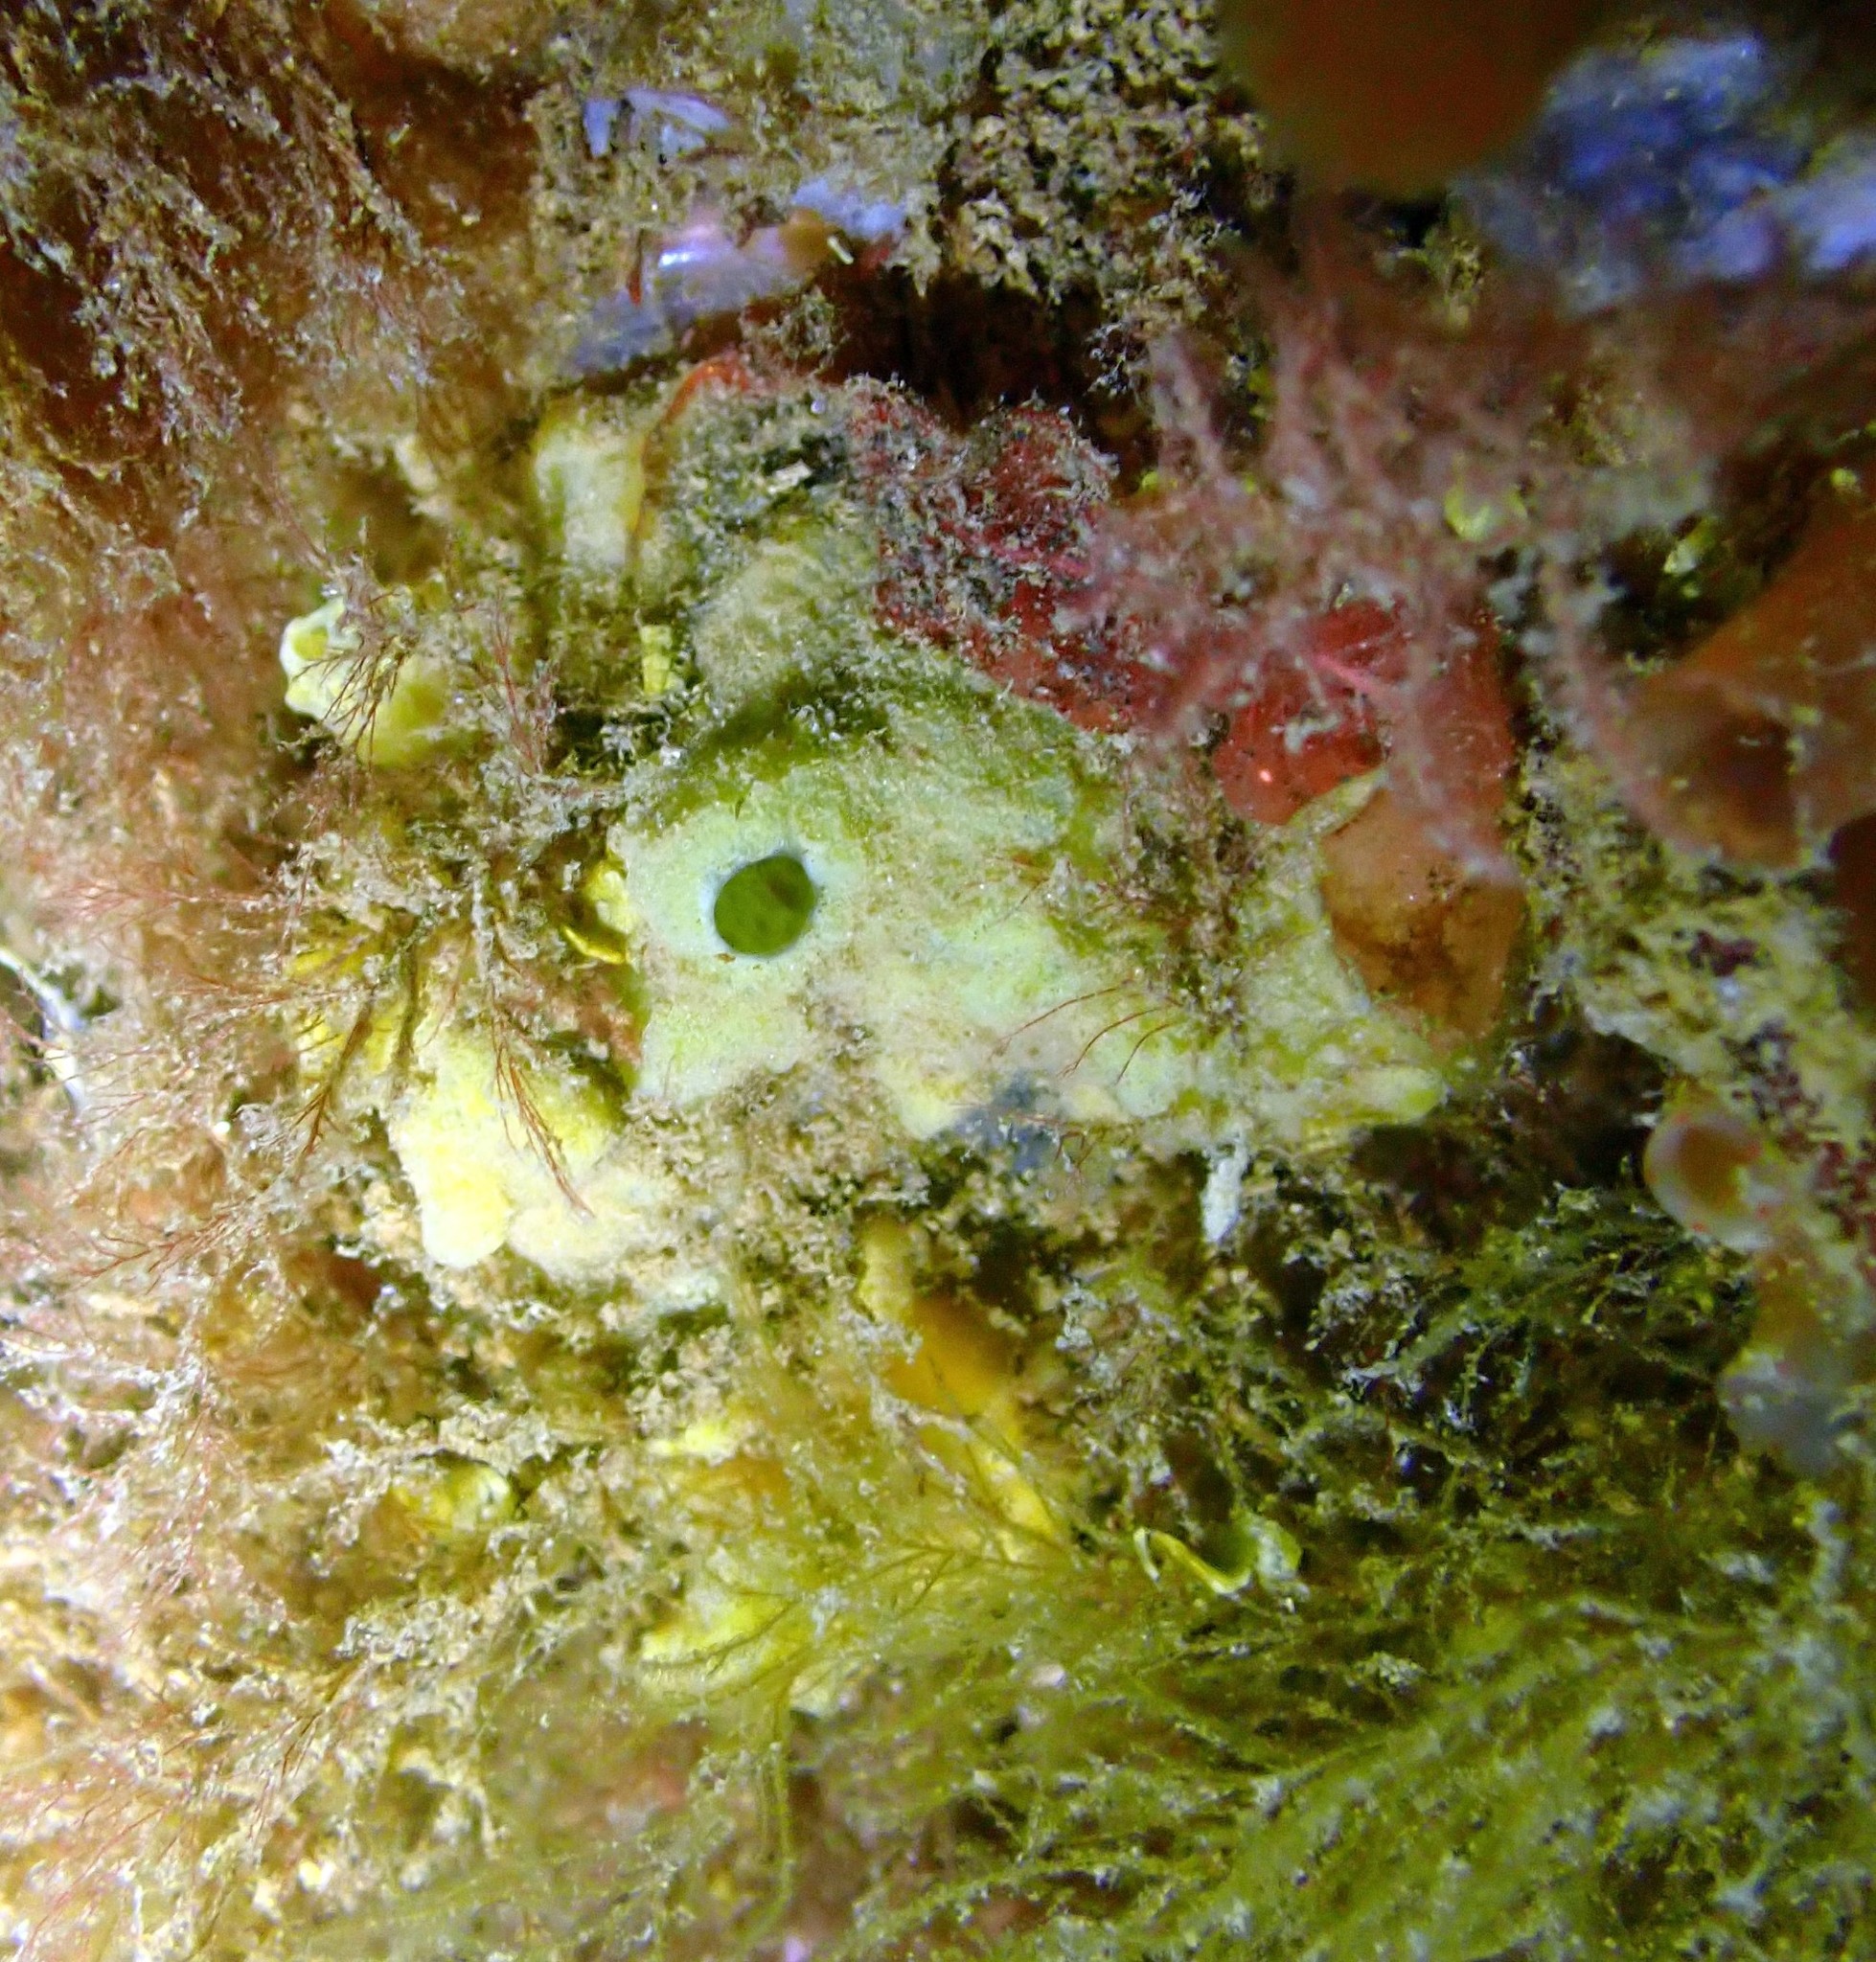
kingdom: Animalia
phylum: Porifera
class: Demospongiae
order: Suberitida
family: Halichondriidae
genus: Halichondria
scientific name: Halichondria panicea
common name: Breadcrumb sponge
